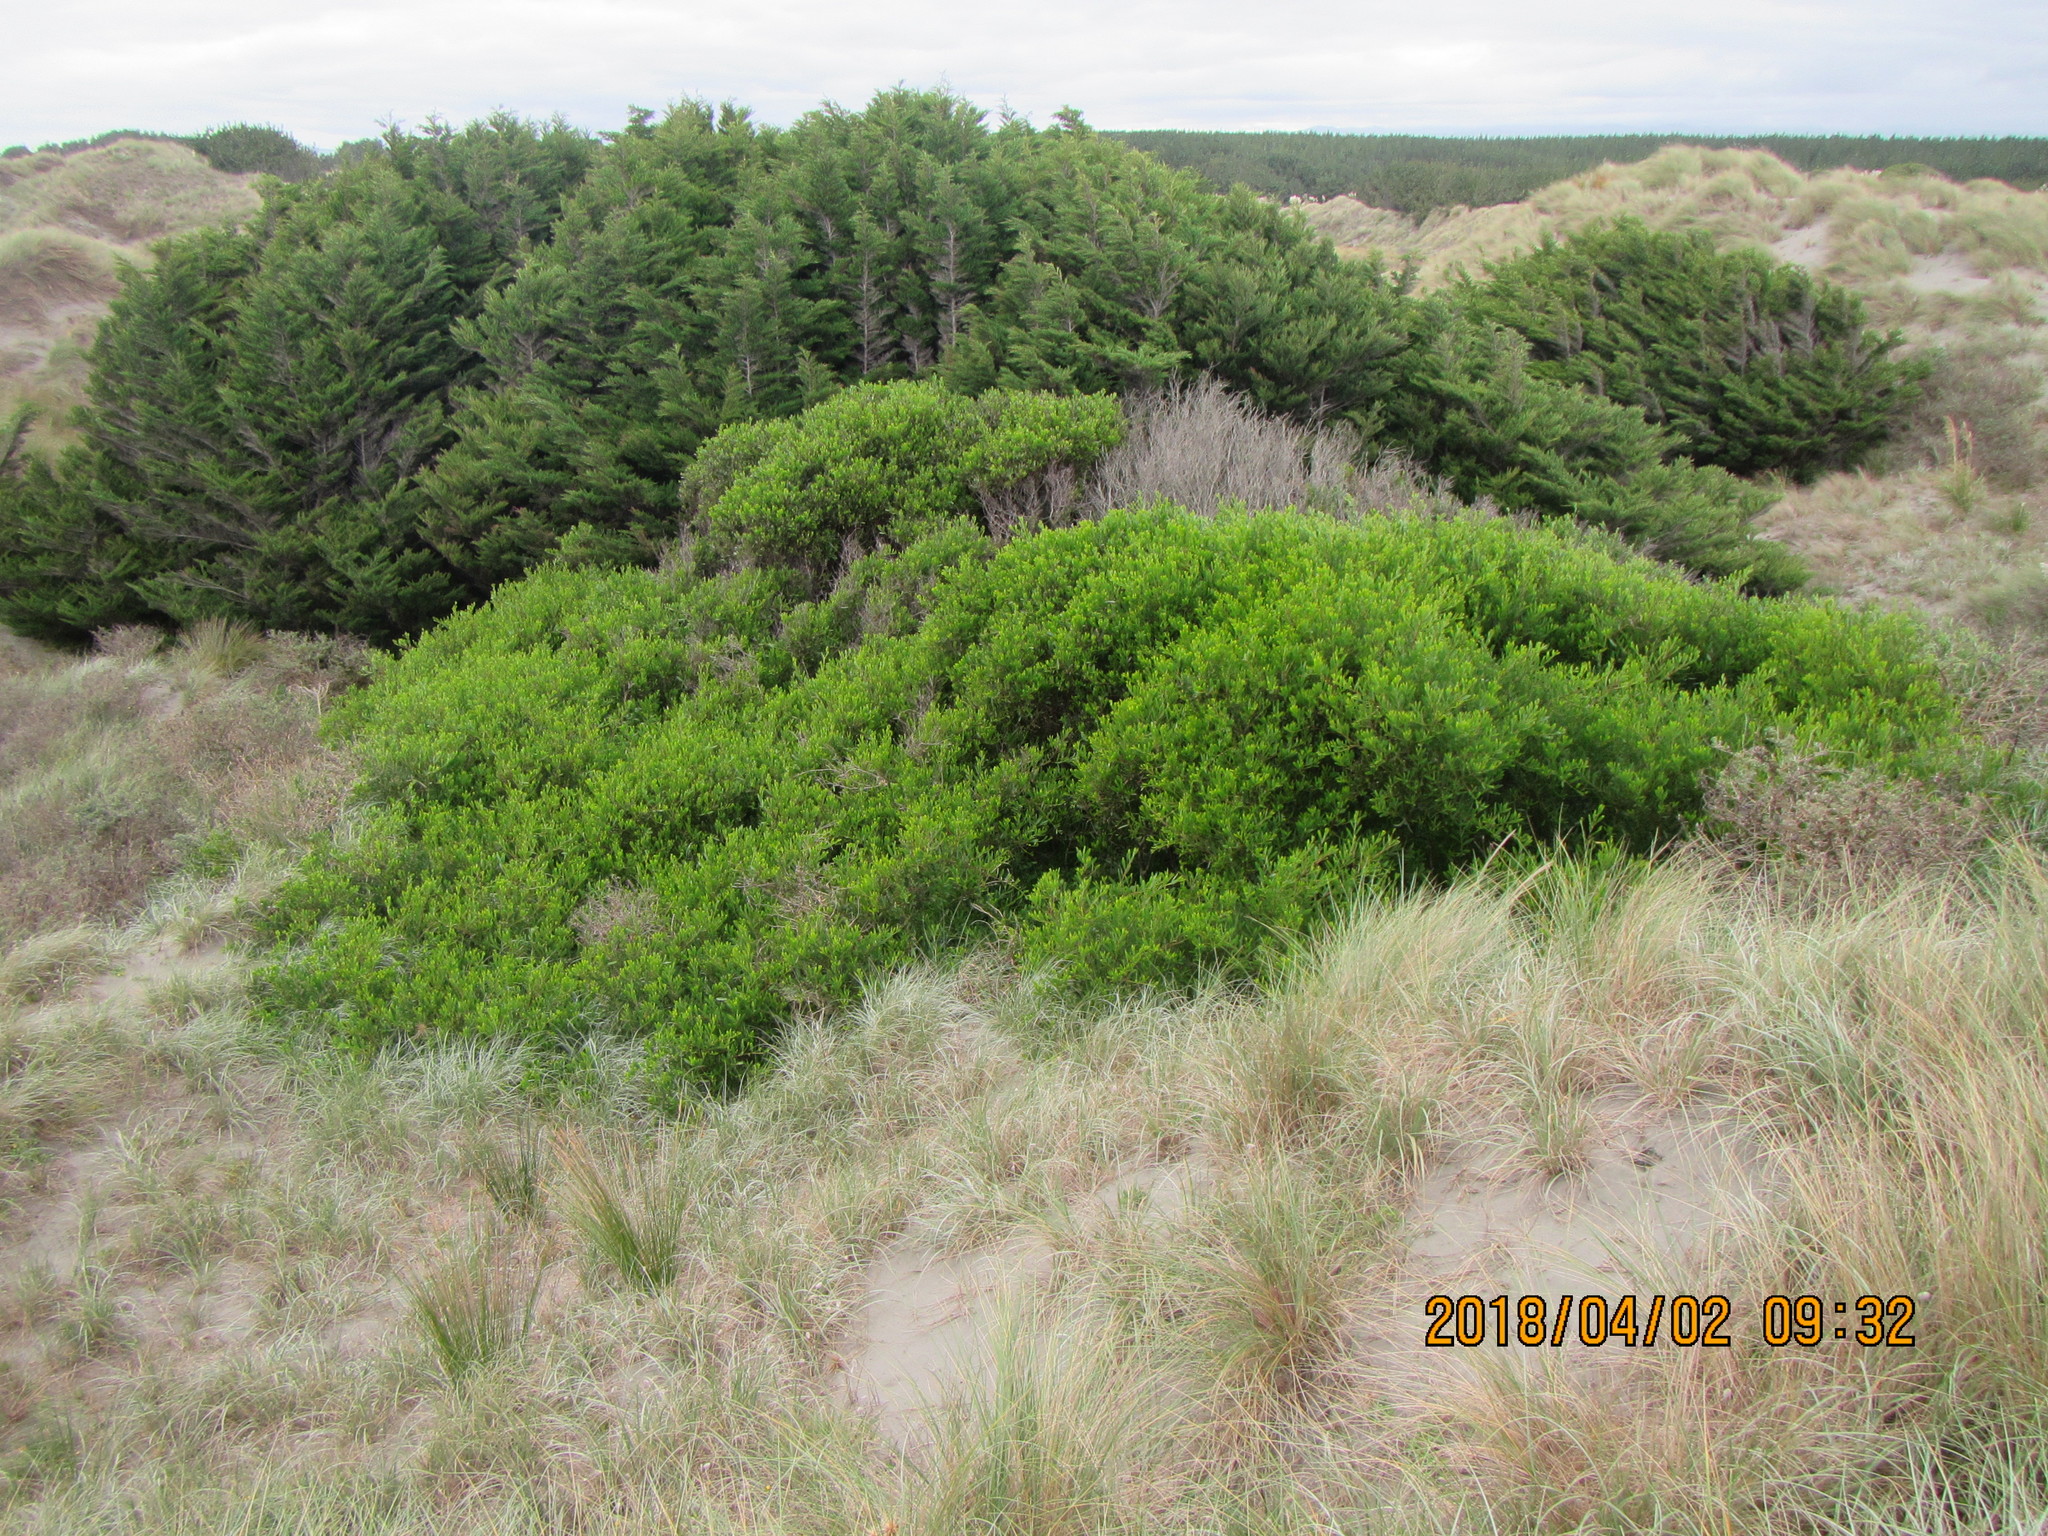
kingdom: Plantae
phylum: Tracheophyta
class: Magnoliopsida
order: Fabales
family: Fabaceae
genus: Acacia
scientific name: Acacia longifolia
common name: Sydney golden wattle
